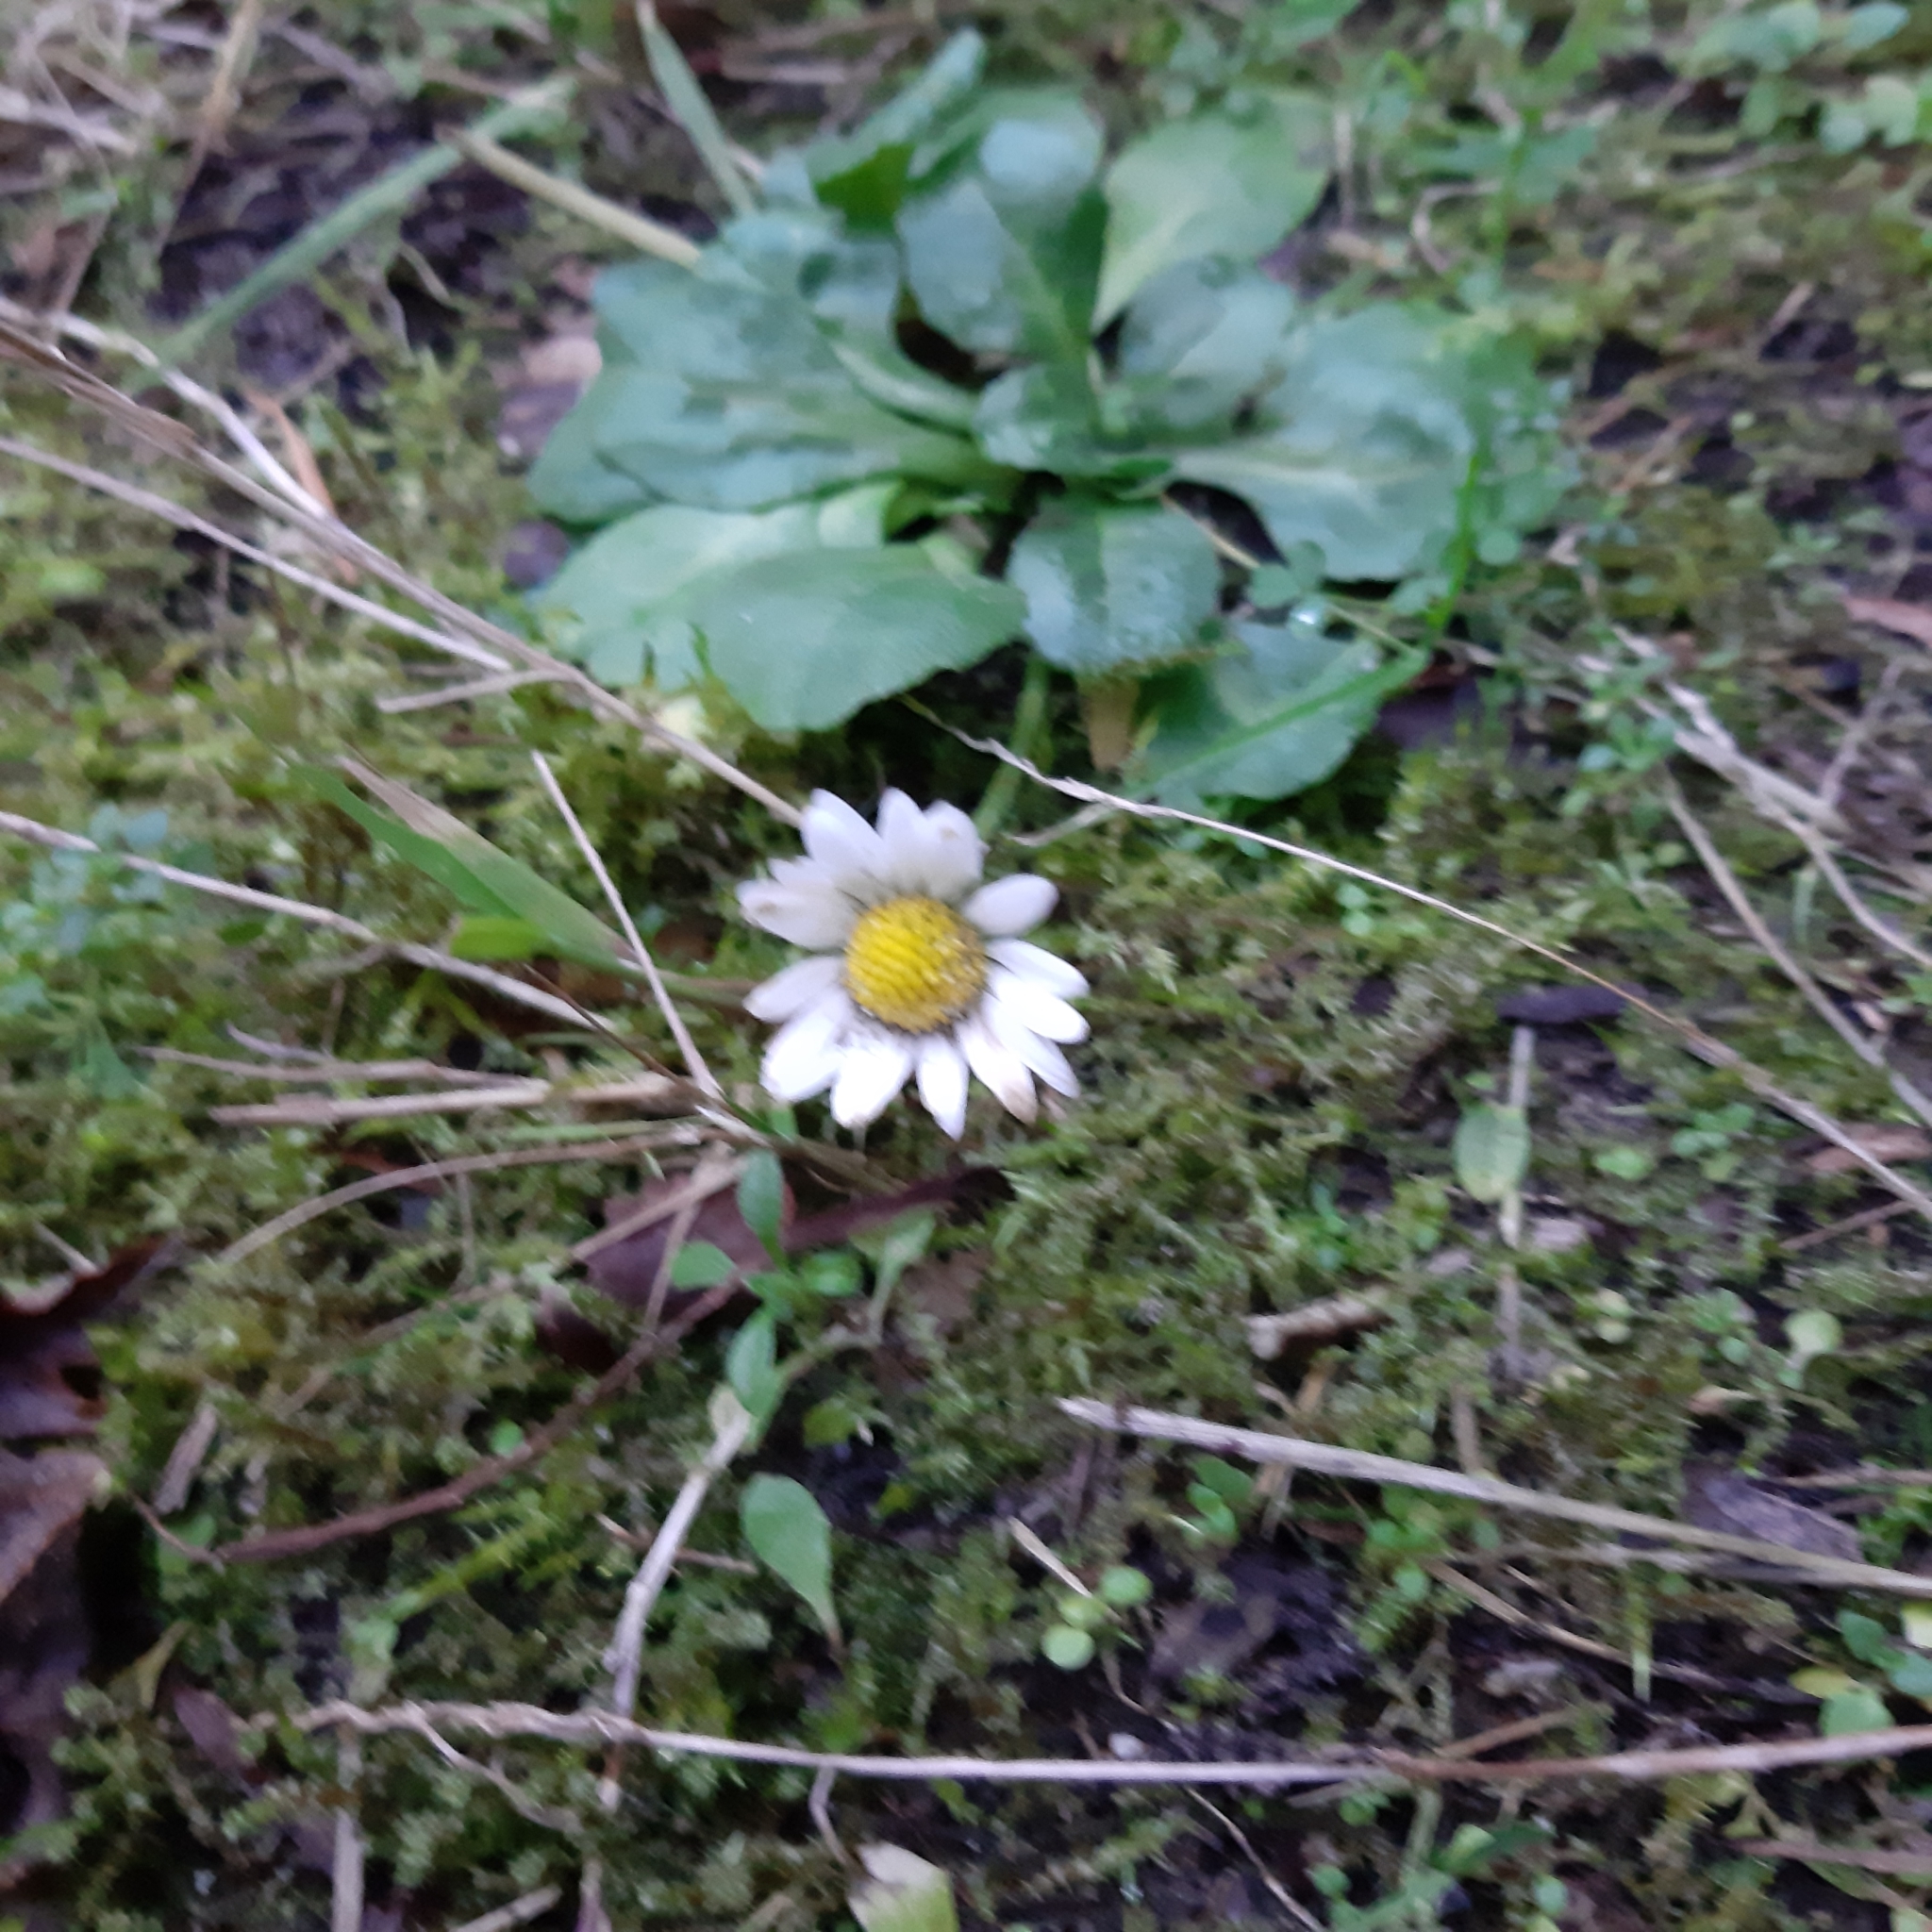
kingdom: Plantae
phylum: Tracheophyta
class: Magnoliopsida
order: Asterales
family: Asteraceae
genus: Bellis
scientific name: Bellis perennis
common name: Lawndaisy
